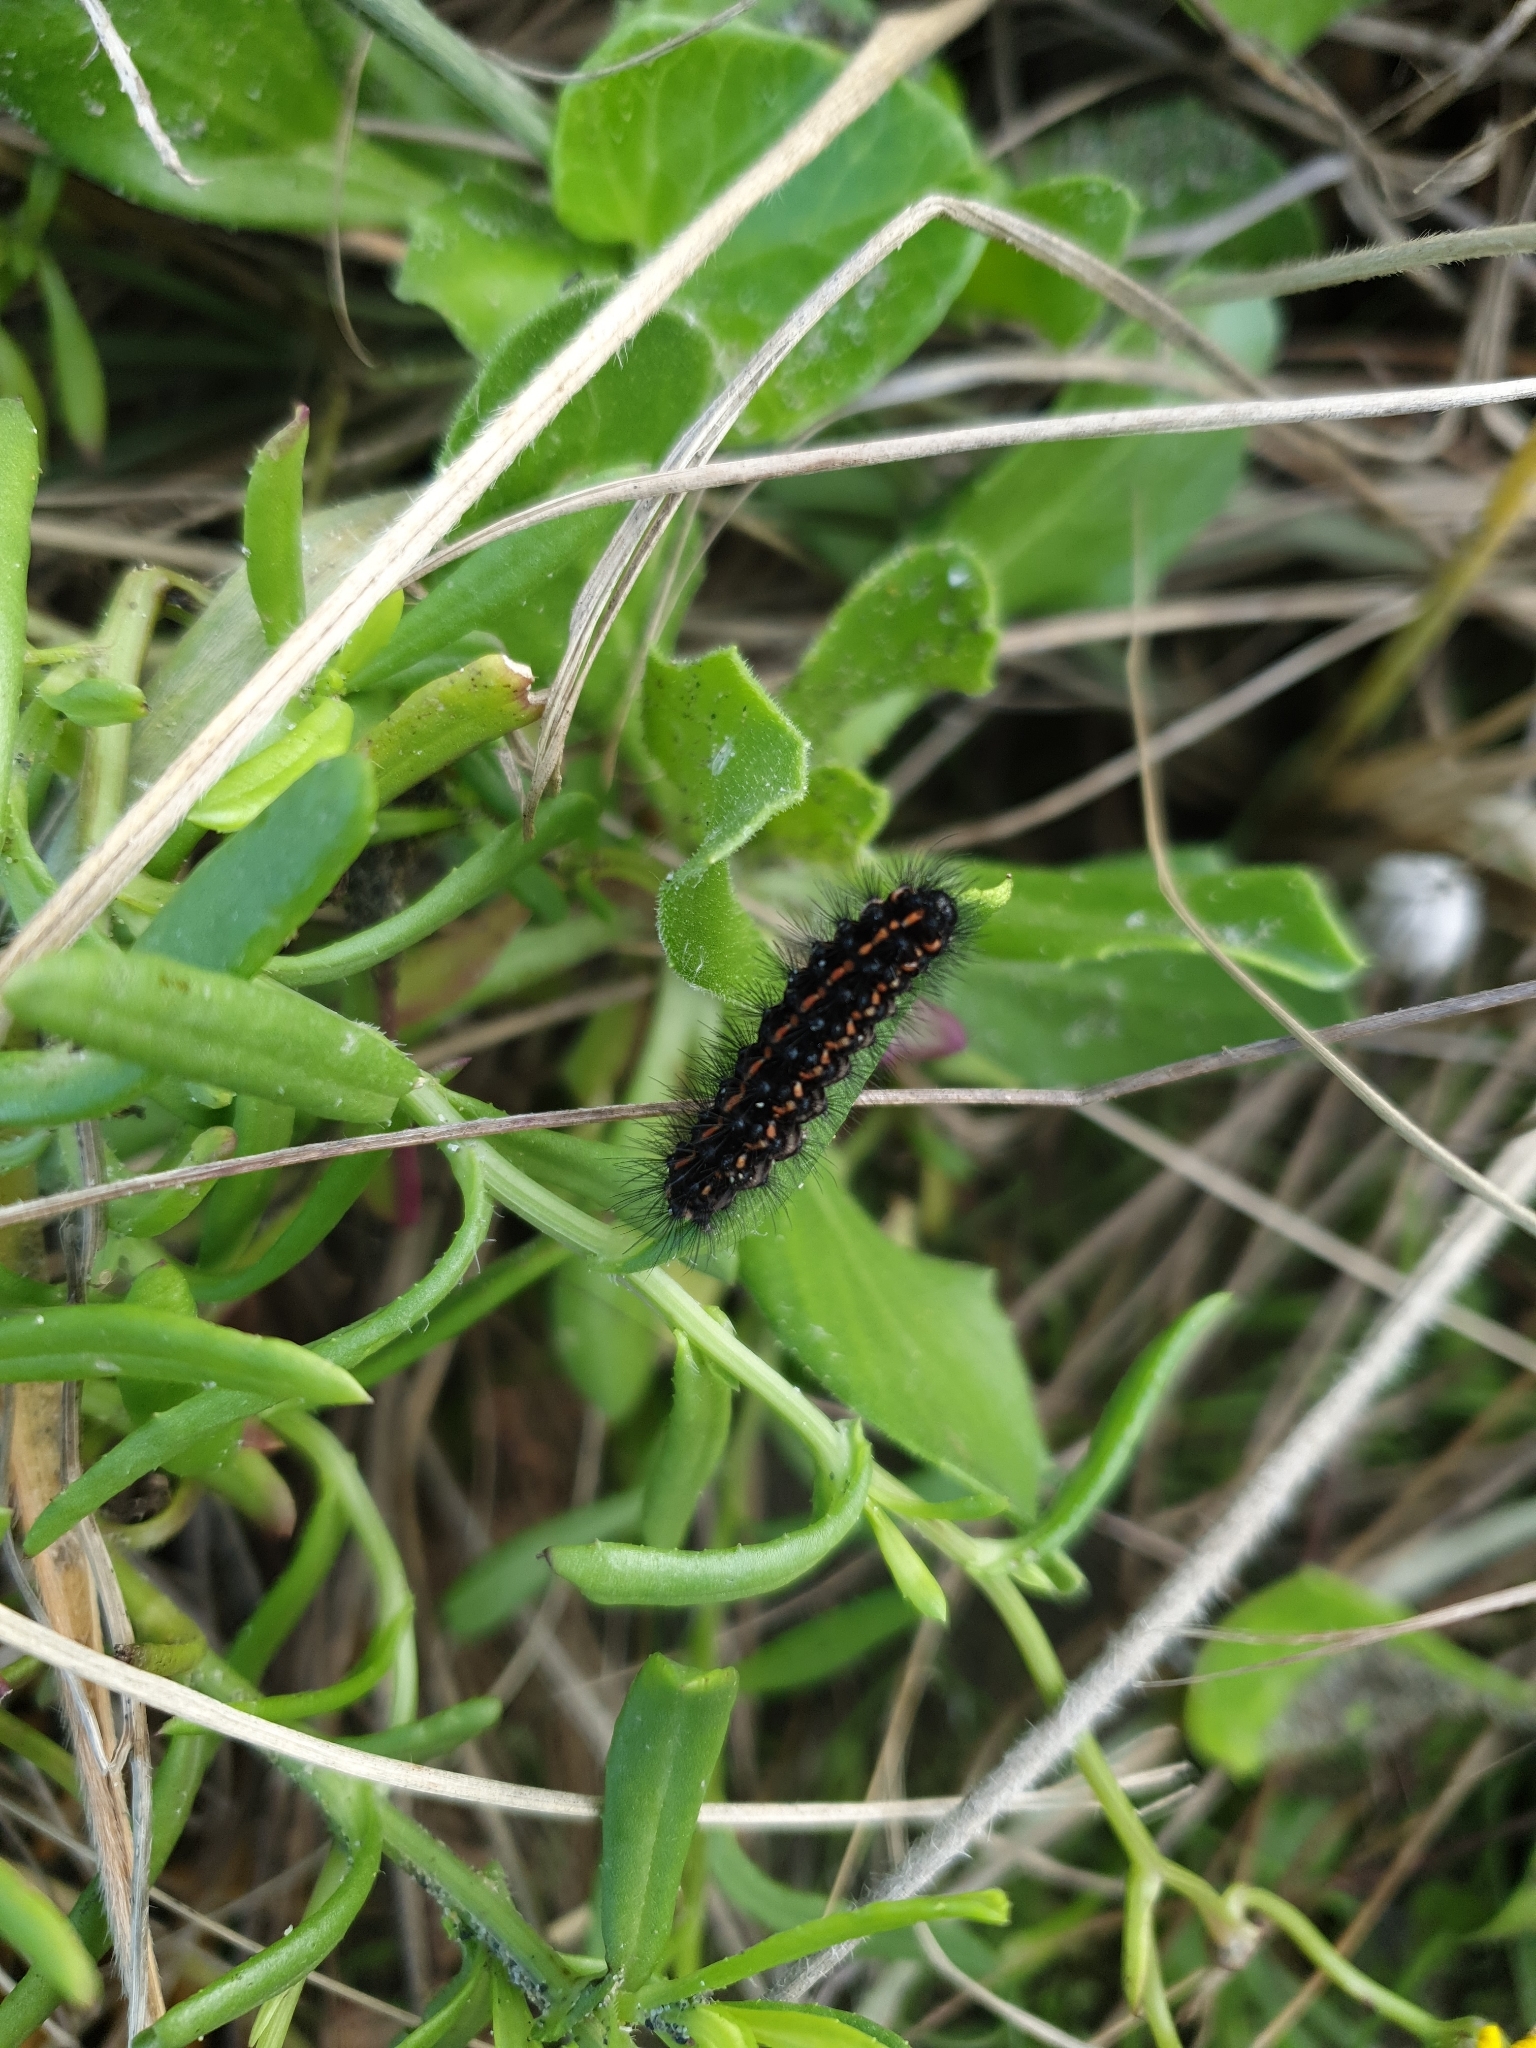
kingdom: Animalia
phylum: Arthropoda
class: Insecta
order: Lepidoptera
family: Erebidae
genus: Nyctemera
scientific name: Nyctemera annulatum
